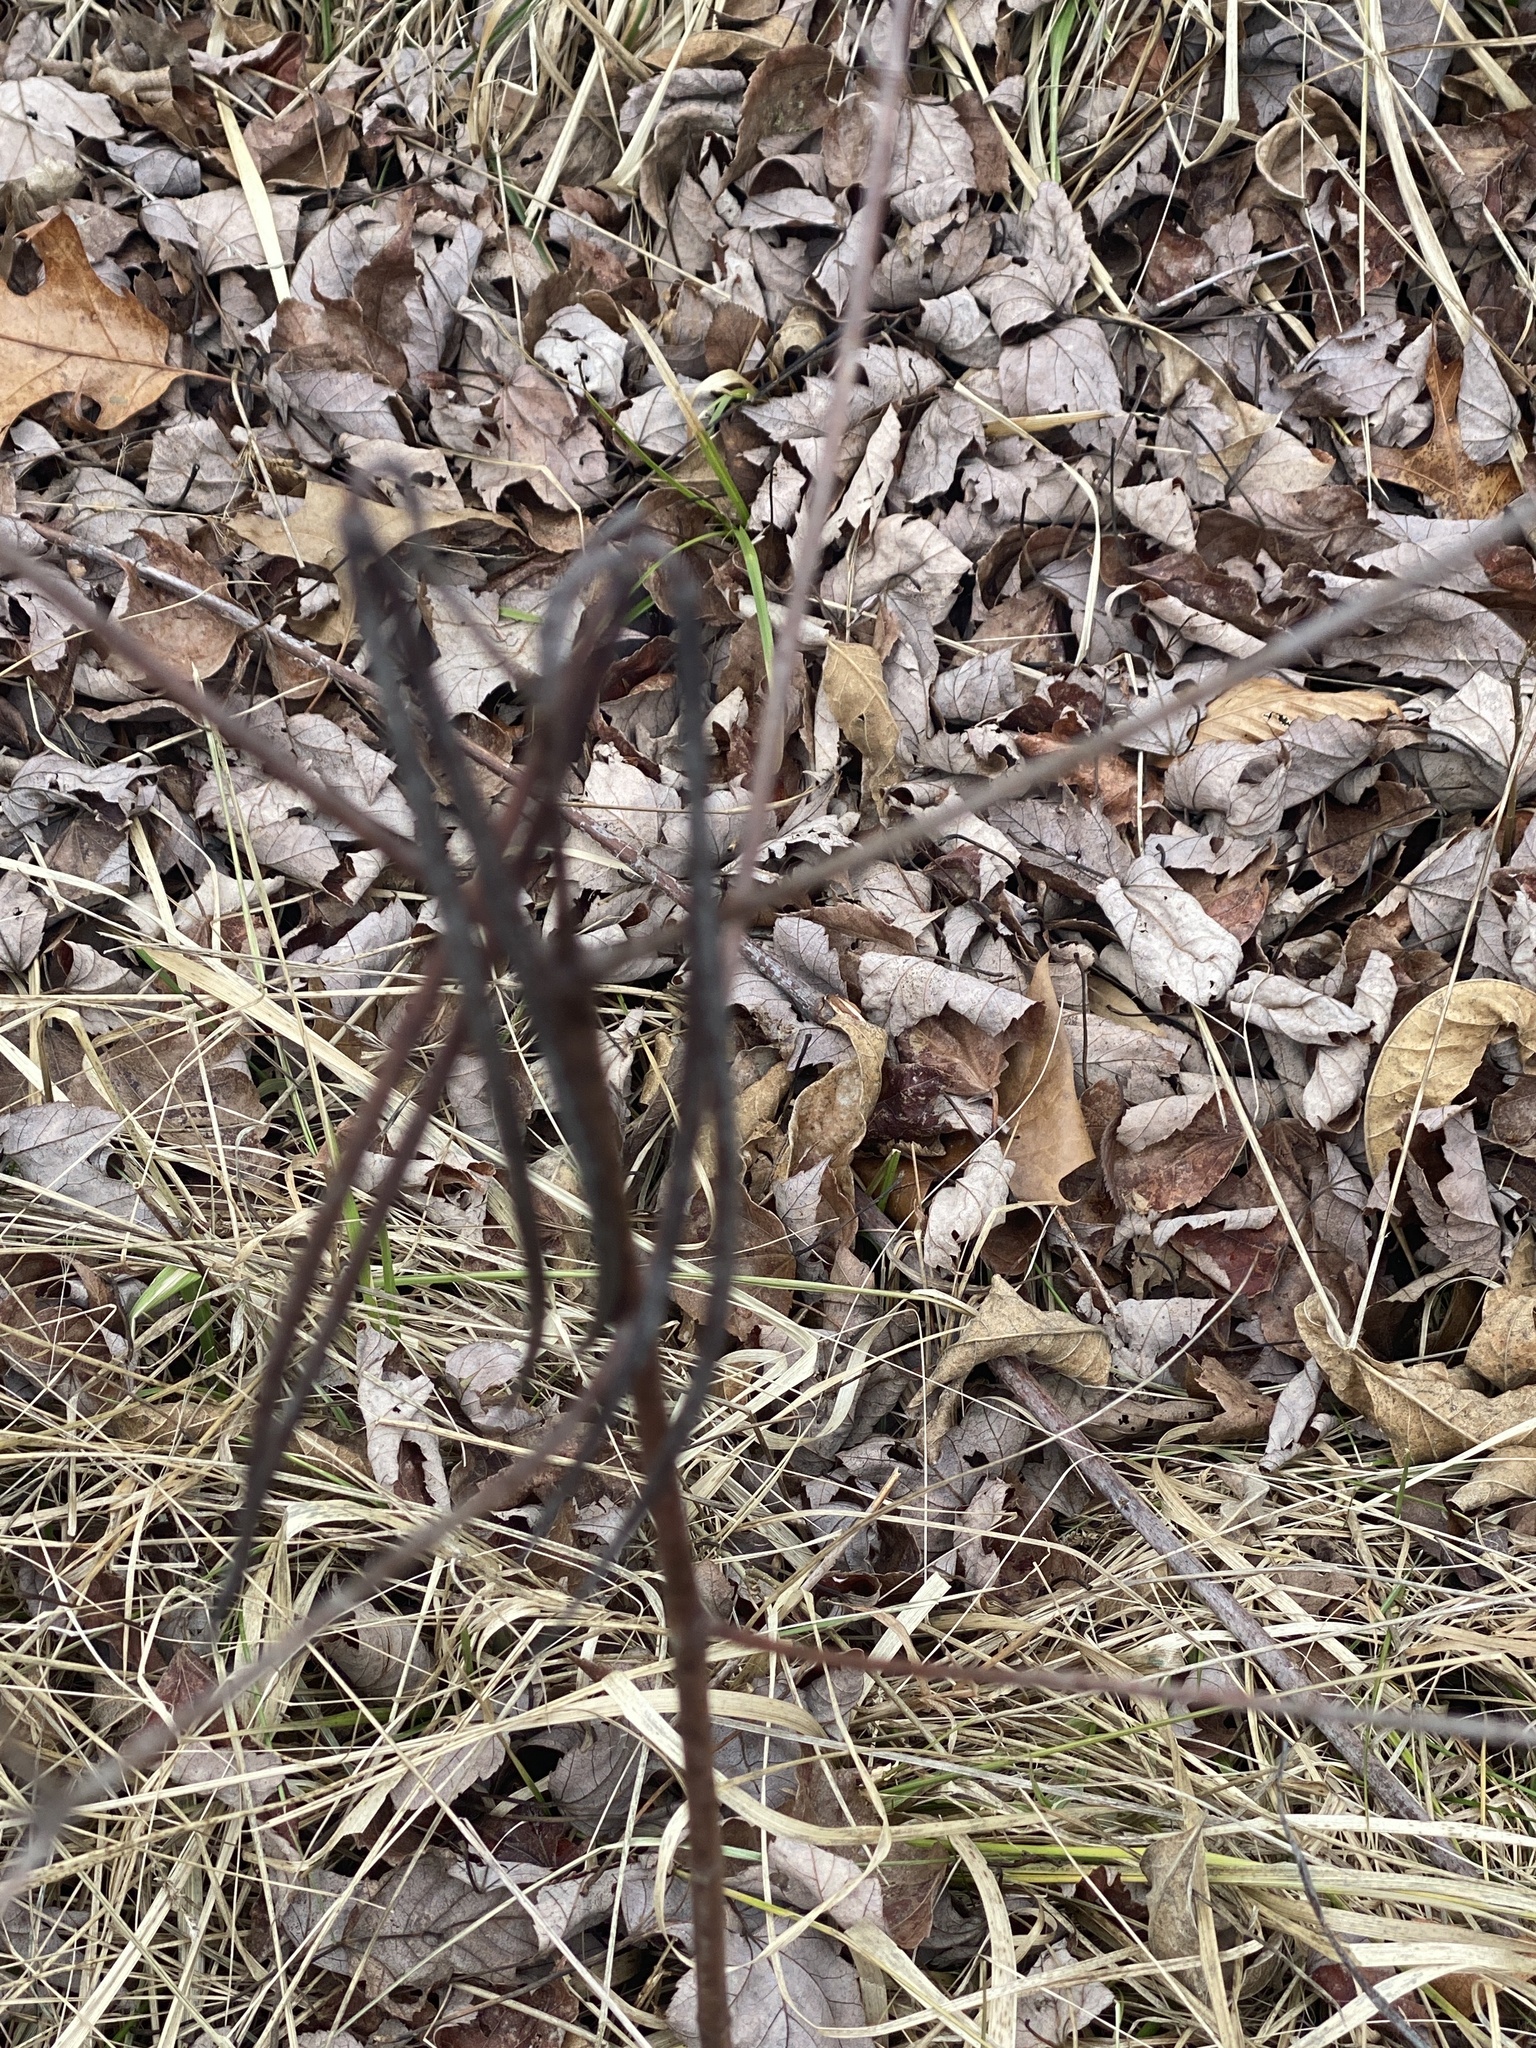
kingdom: Plantae
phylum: Tracheophyta
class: Magnoliopsida
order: Gentianales
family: Apocynaceae
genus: Apocynum
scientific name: Apocynum cannabinum
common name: Hemp dogbane
